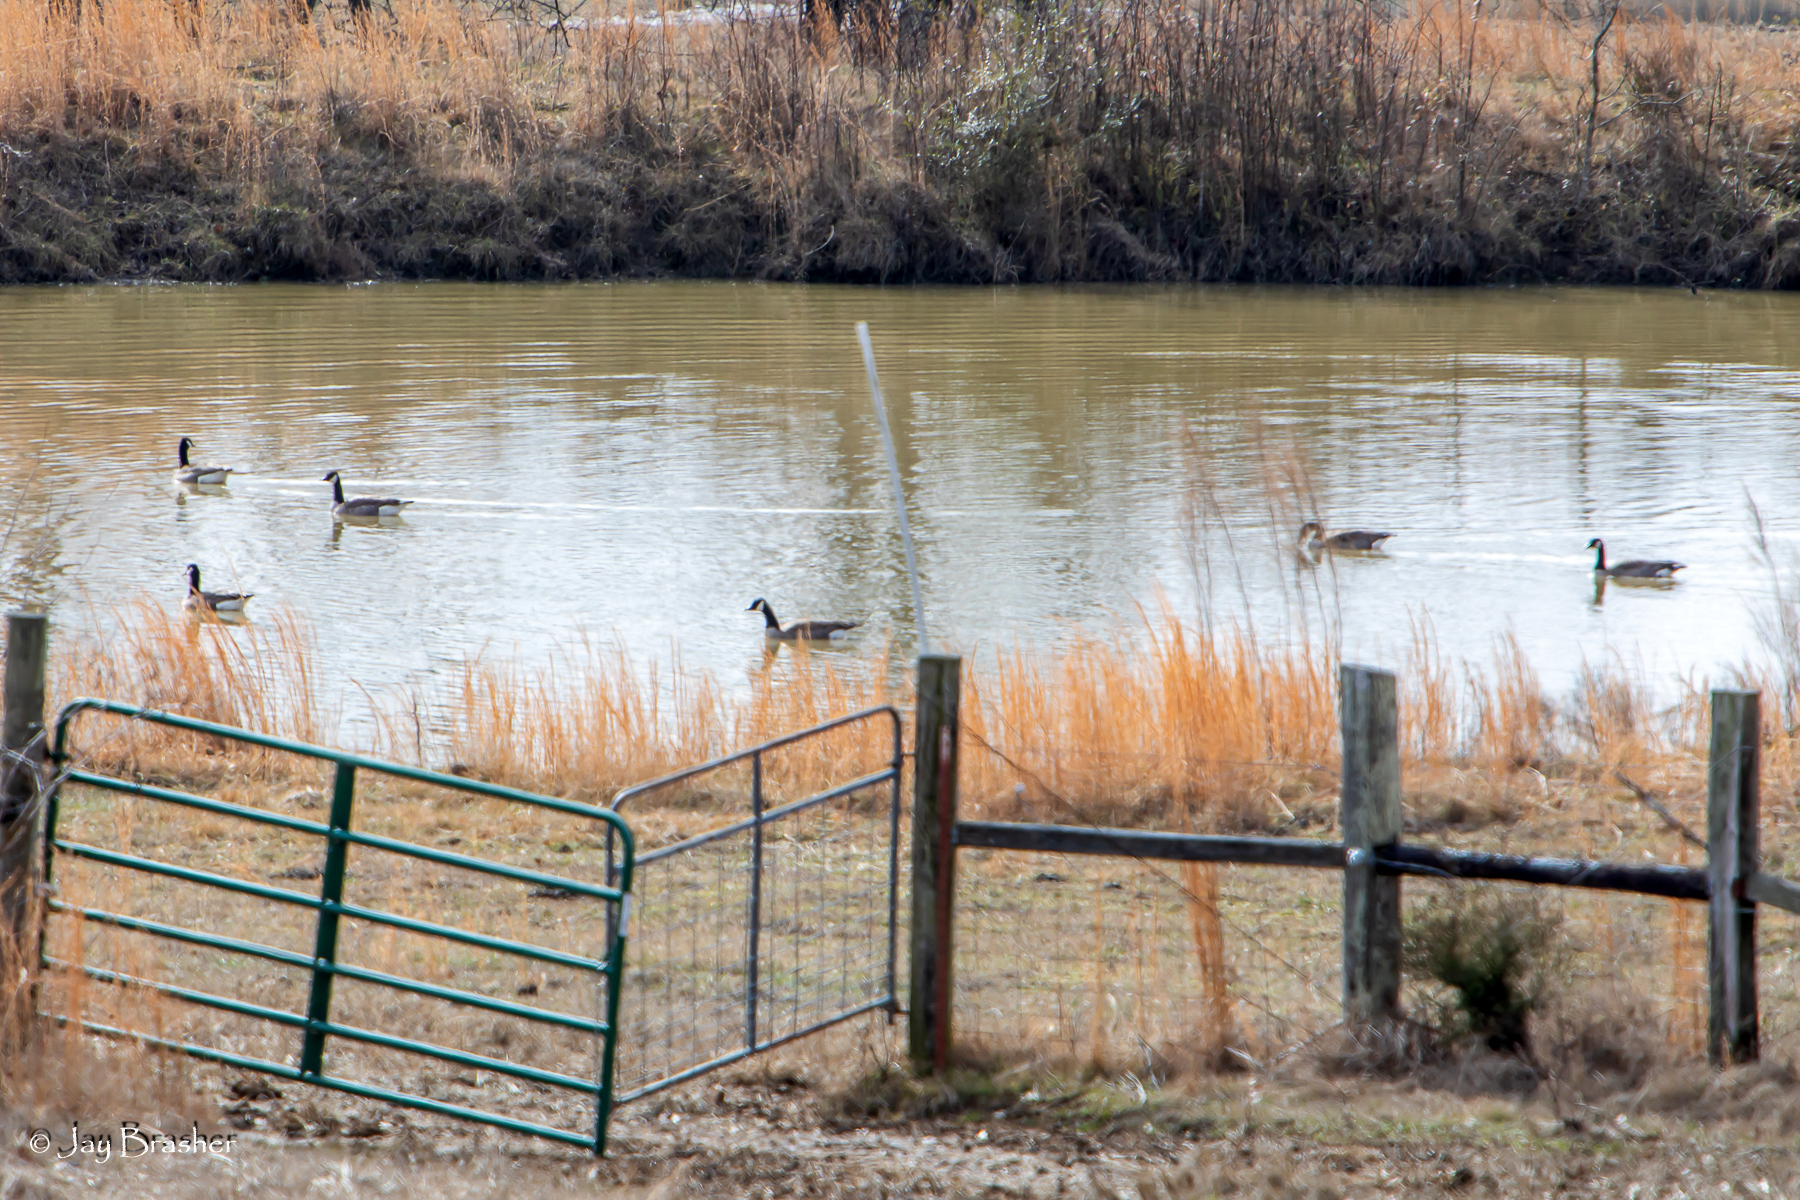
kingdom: Animalia
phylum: Chordata
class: Aves
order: Anseriformes
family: Anatidae
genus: Branta
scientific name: Branta canadensis
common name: Canada goose
